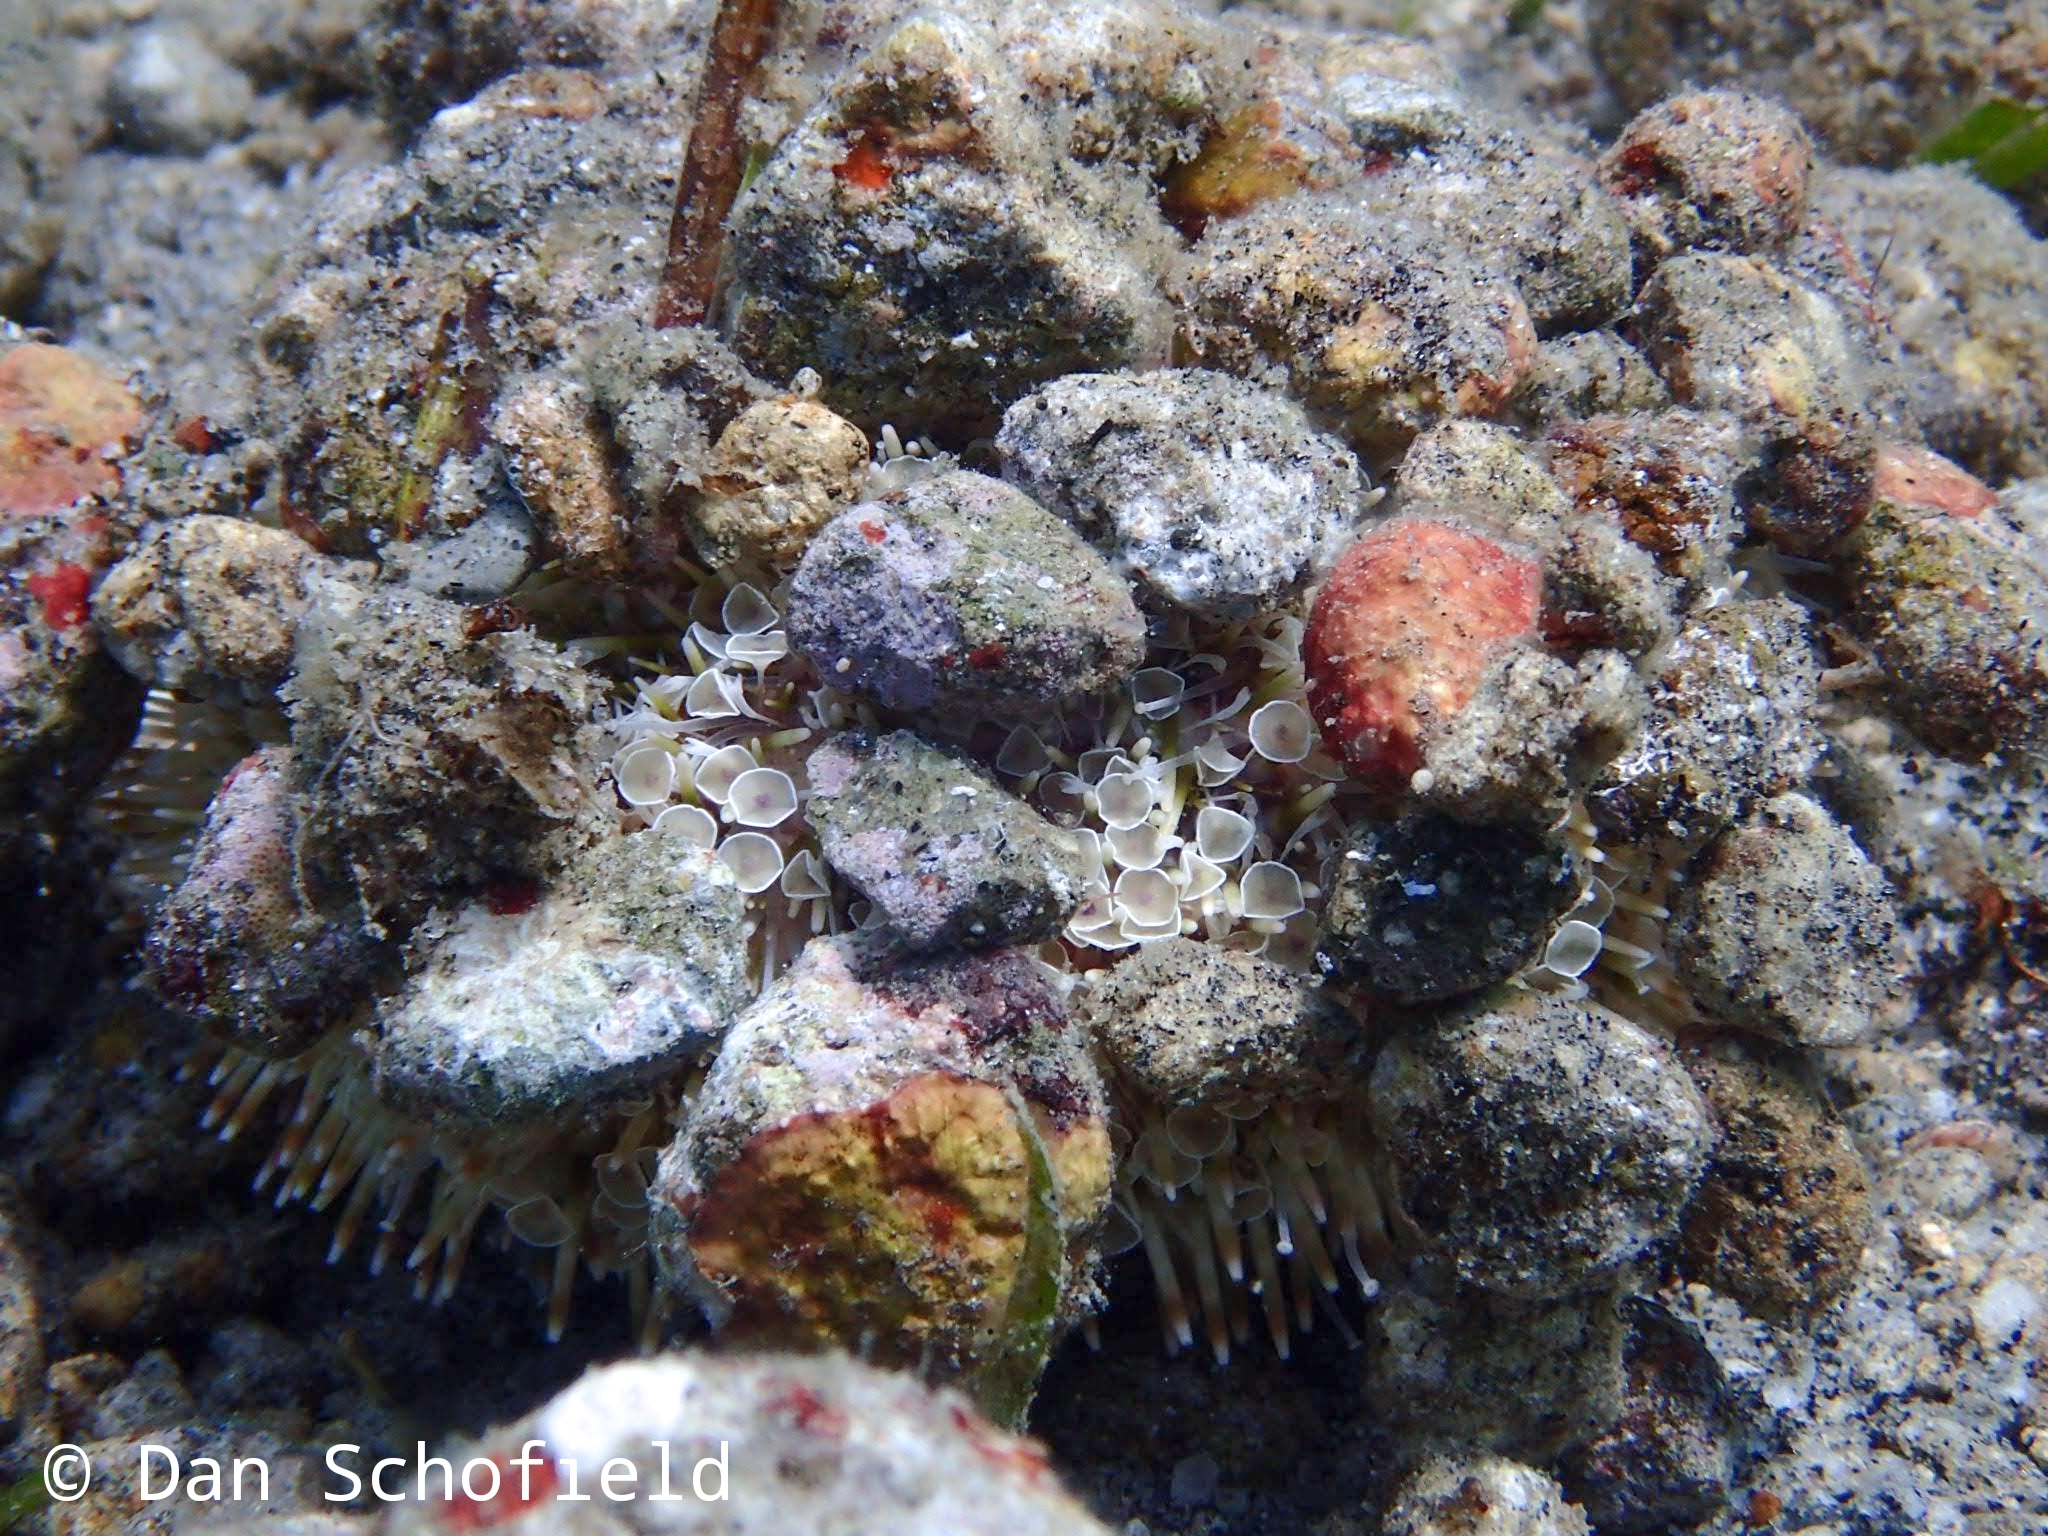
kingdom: Animalia
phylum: Echinodermata
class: Echinoidea
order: Camarodonta
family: Toxopneustidae
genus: Toxopneustes
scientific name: Toxopneustes pileolus
